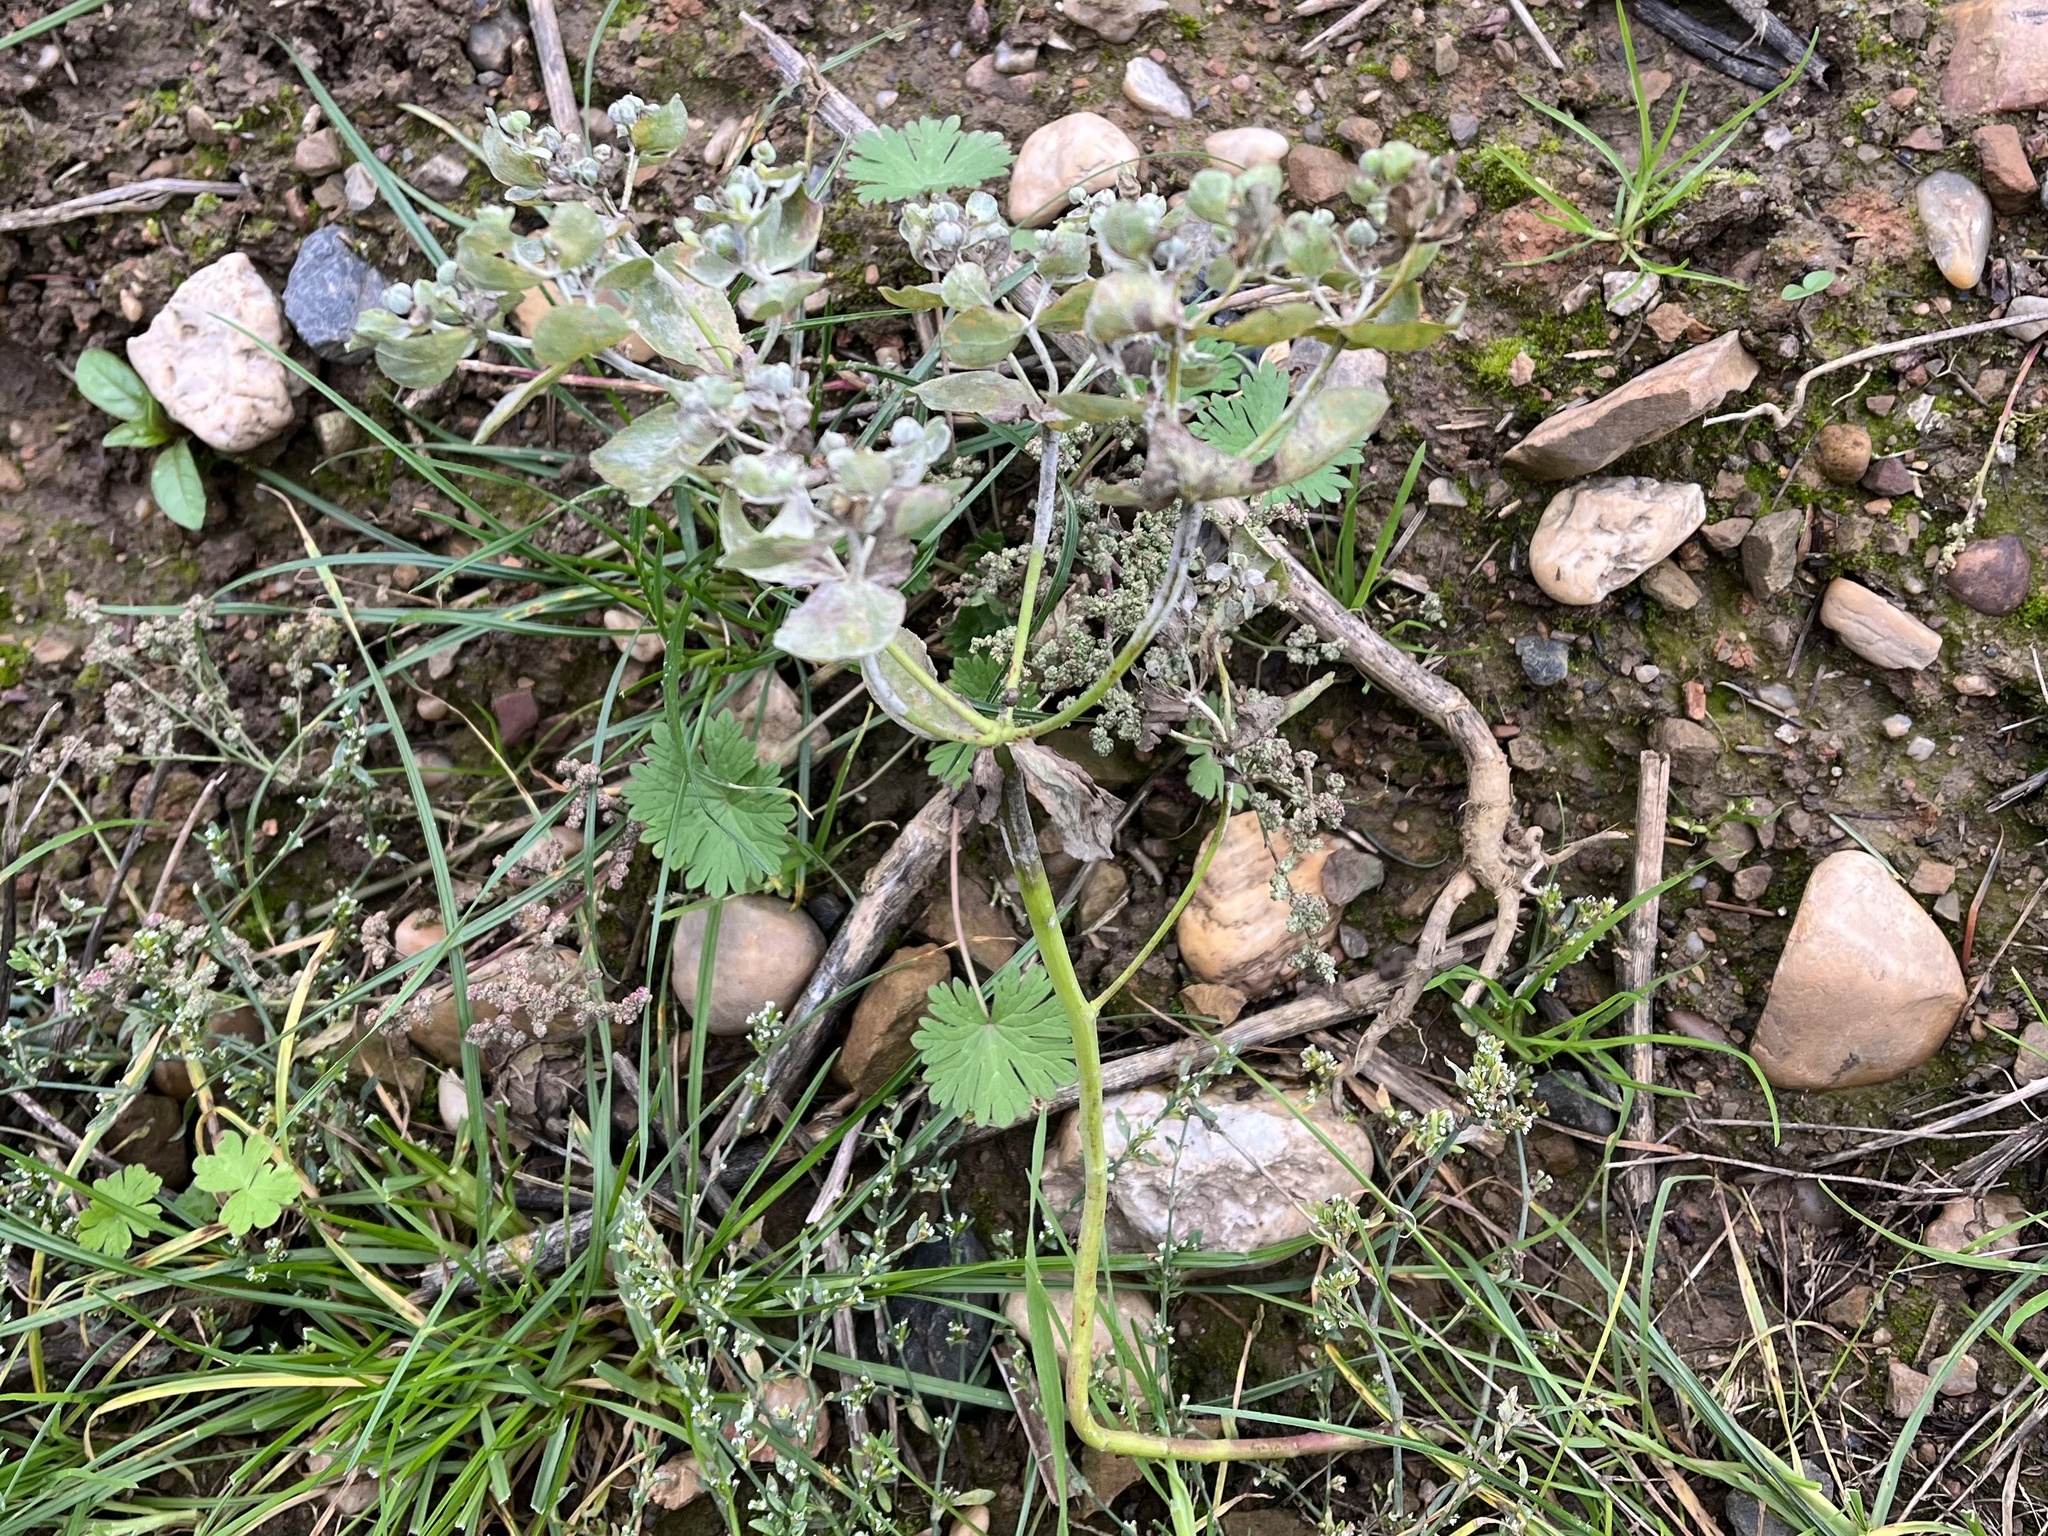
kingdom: Plantae
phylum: Tracheophyta
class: Magnoliopsida
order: Malpighiales
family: Euphorbiaceae
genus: Euphorbia
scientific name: Euphorbia helioscopia
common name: Sun spurge
